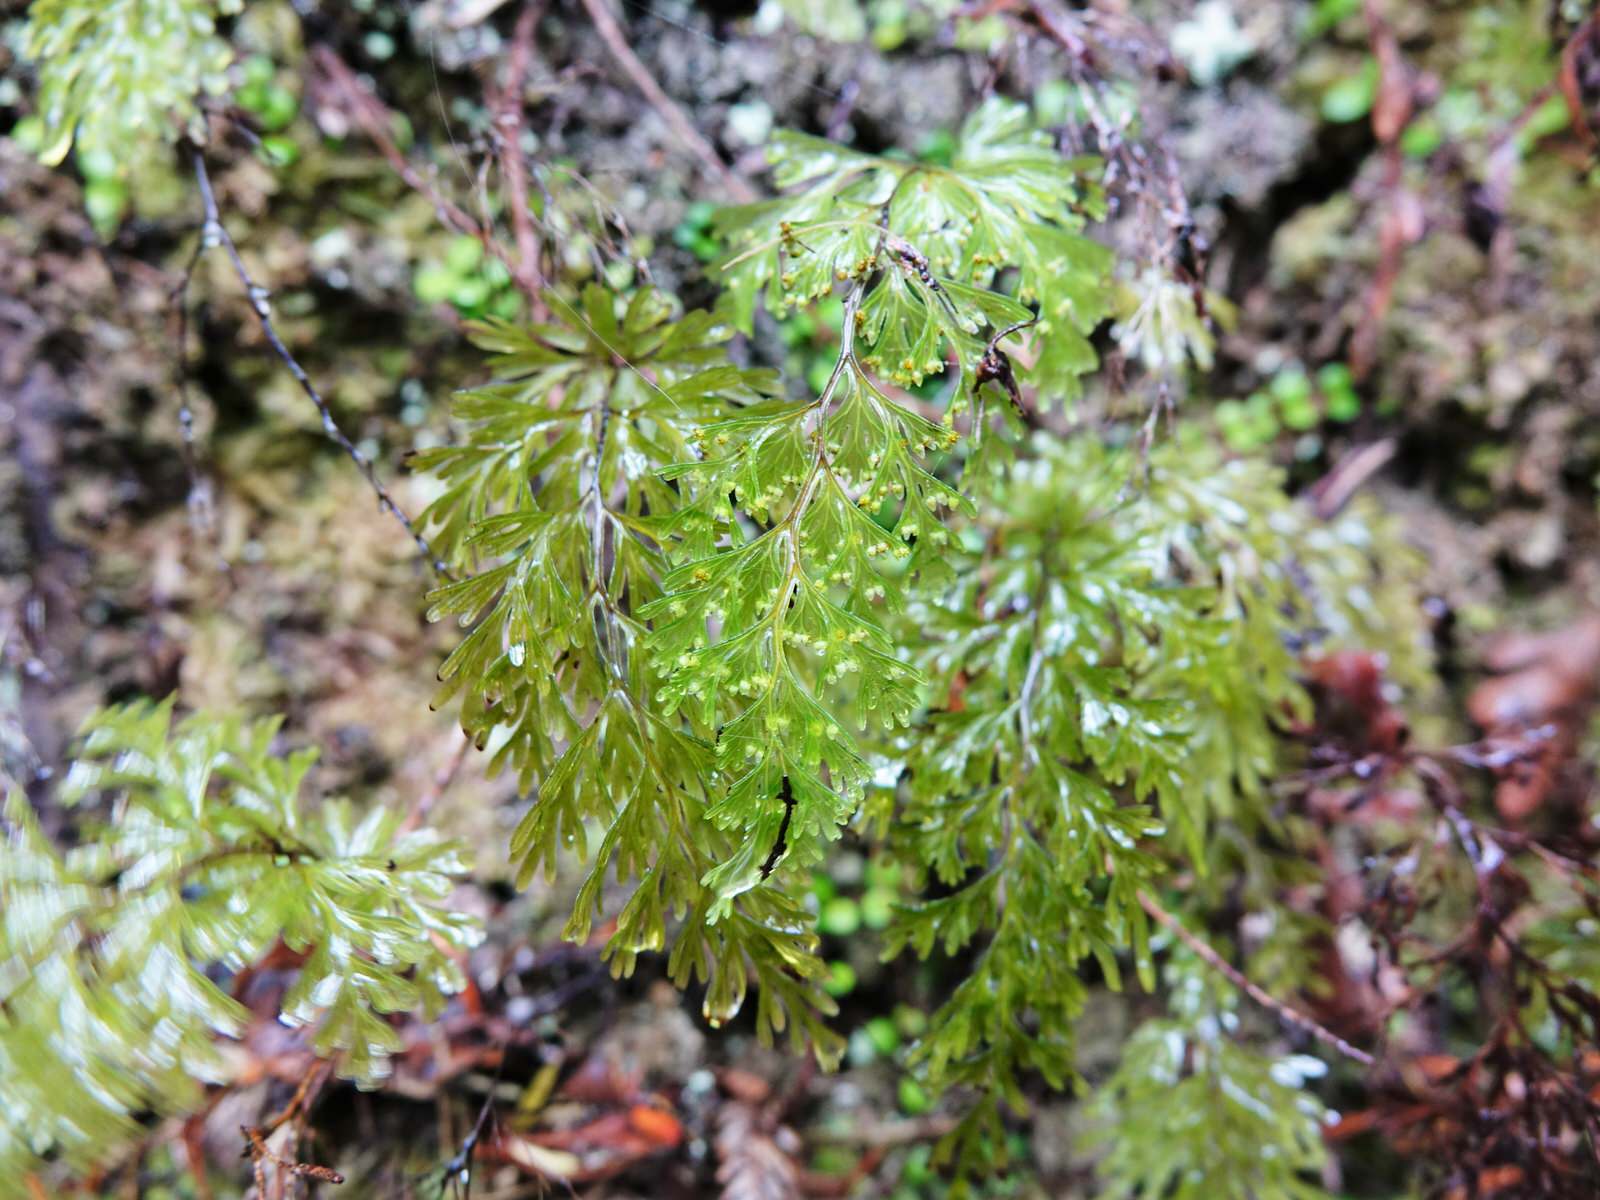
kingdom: Plantae
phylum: Tracheophyta
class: Polypodiopsida
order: Hymenophyllales
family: Hymenophyllaceae
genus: Hymenophyllum
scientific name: Hymenophyllum demissum
